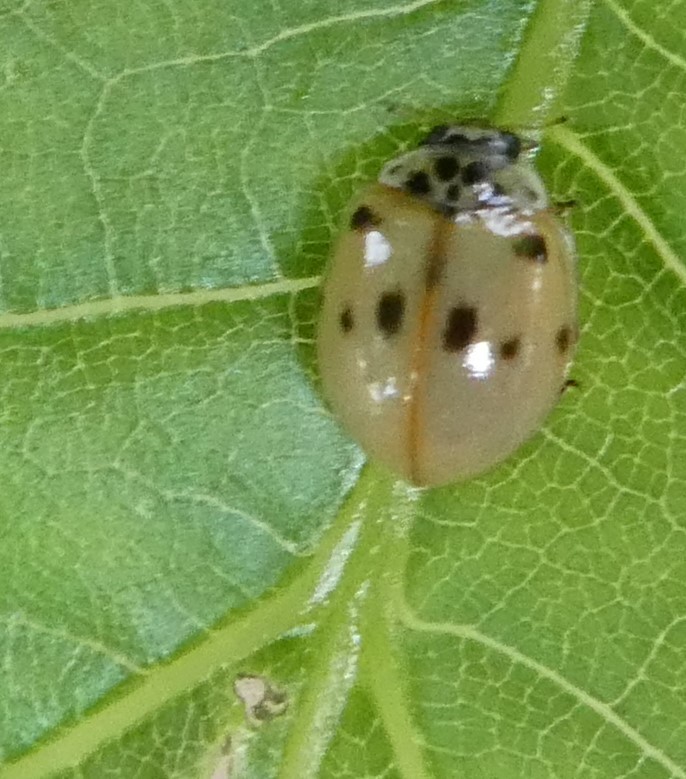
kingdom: Animalia
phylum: Arthropoda
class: Insecta
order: Coleoptera
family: Coccinellidae
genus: Adalia
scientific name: Adalia decempunctata
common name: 10-spot ladybird
